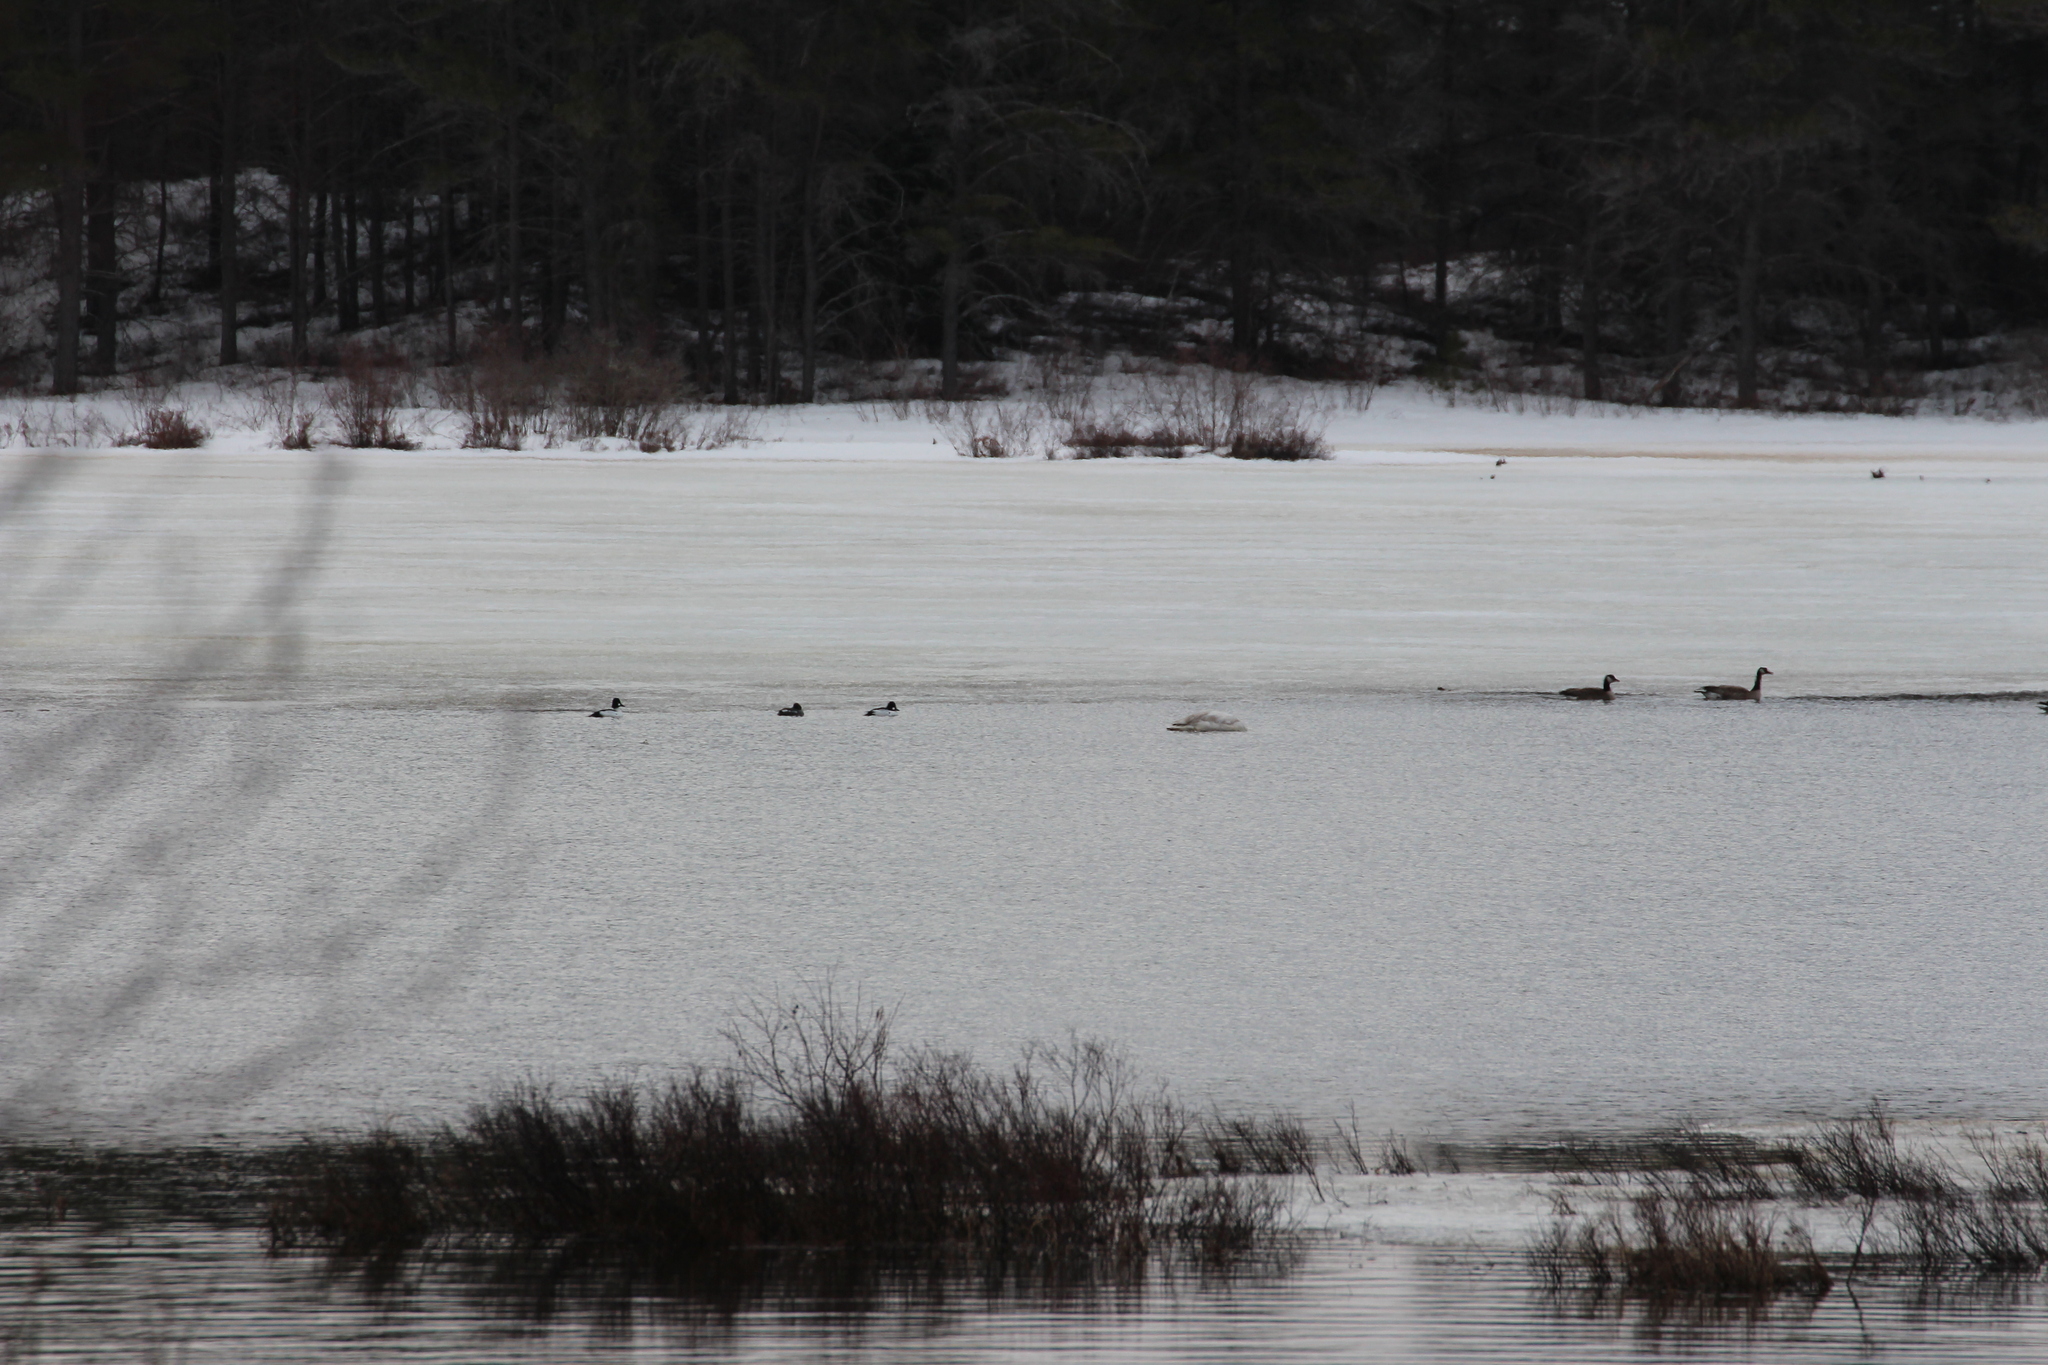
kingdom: Animalia
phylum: Chordata
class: Aves
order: Anseriformes
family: Anatidae
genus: Bucephala
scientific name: Bucephala clangula
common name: Common goldeneye
